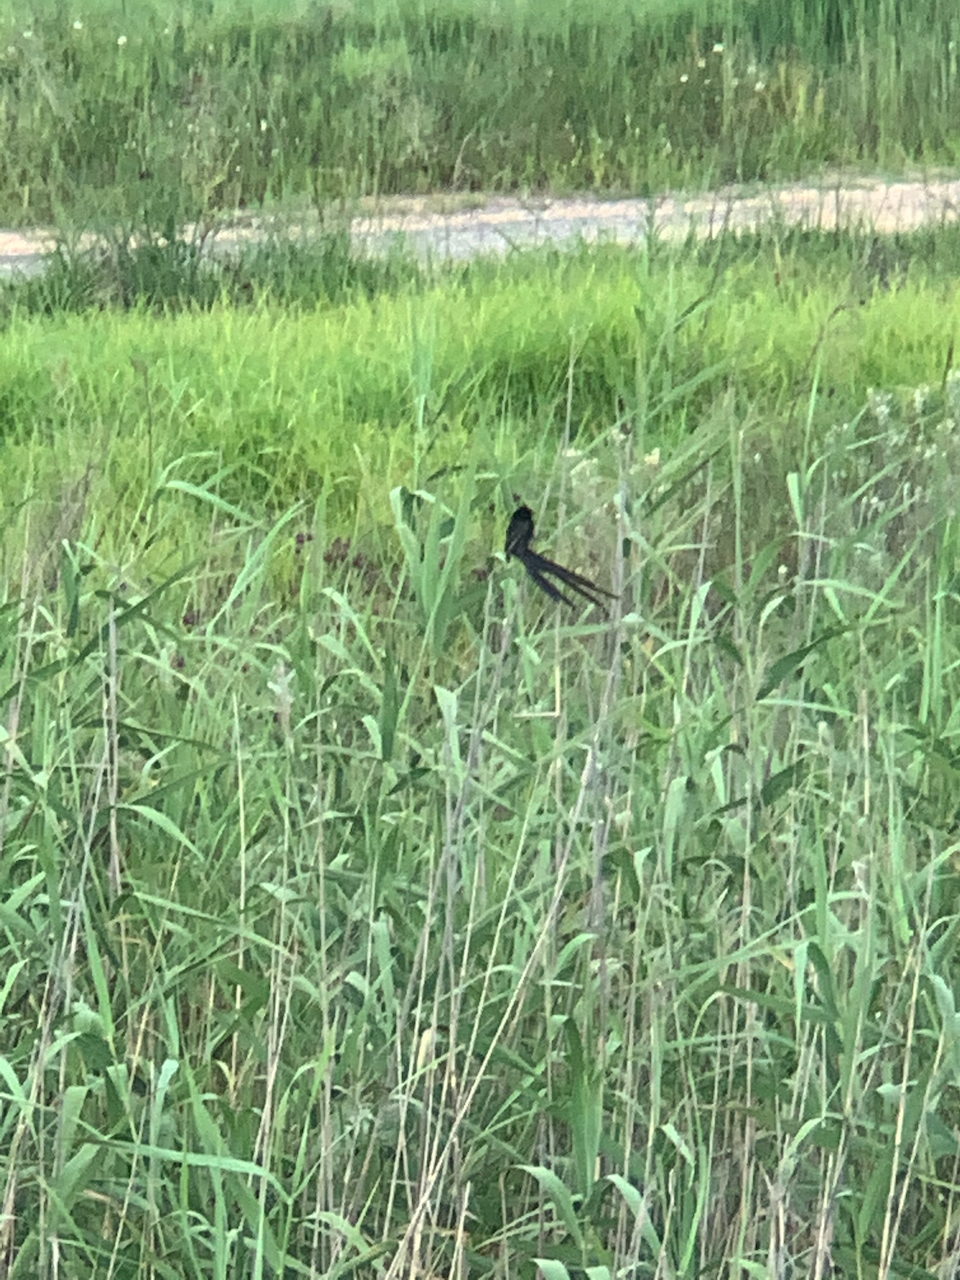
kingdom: Animalia
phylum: Chordata
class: Aves
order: Passeriformes
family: Ploceidae
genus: Euplectes
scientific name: Euplectes ardens
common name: Red-collared widowbird
